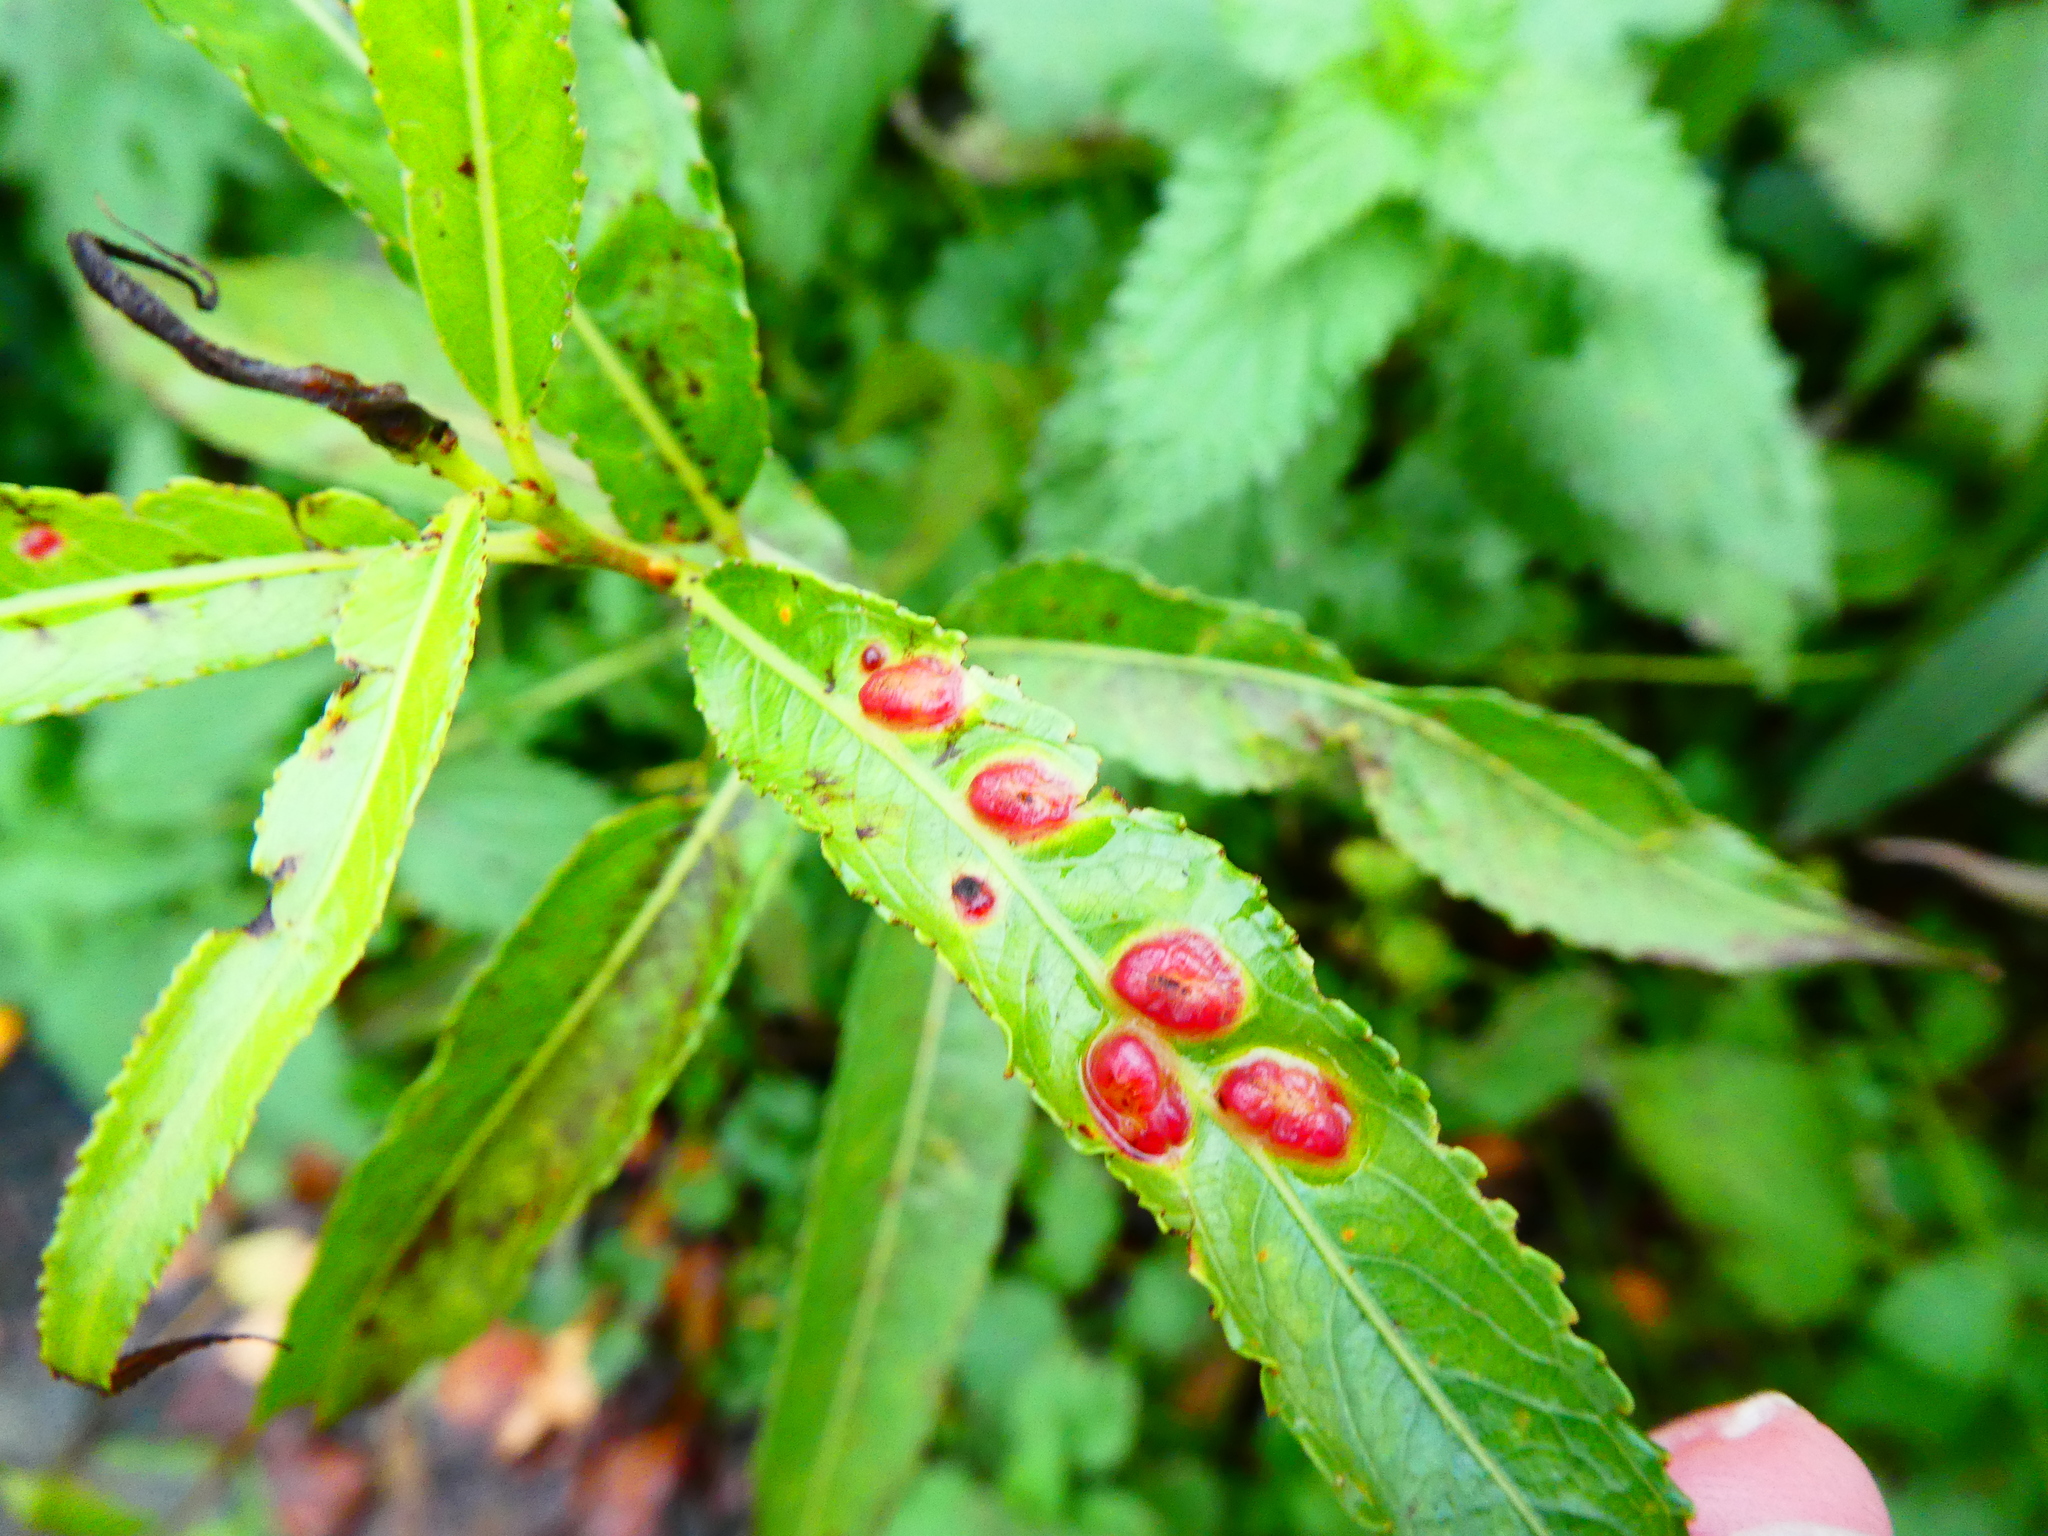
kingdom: Animalia
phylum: Arthropoda
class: Insecta
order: Hymenoptera
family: Tenthredinidae
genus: Pontania
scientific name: Pontania proxima
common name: Common sawfly
